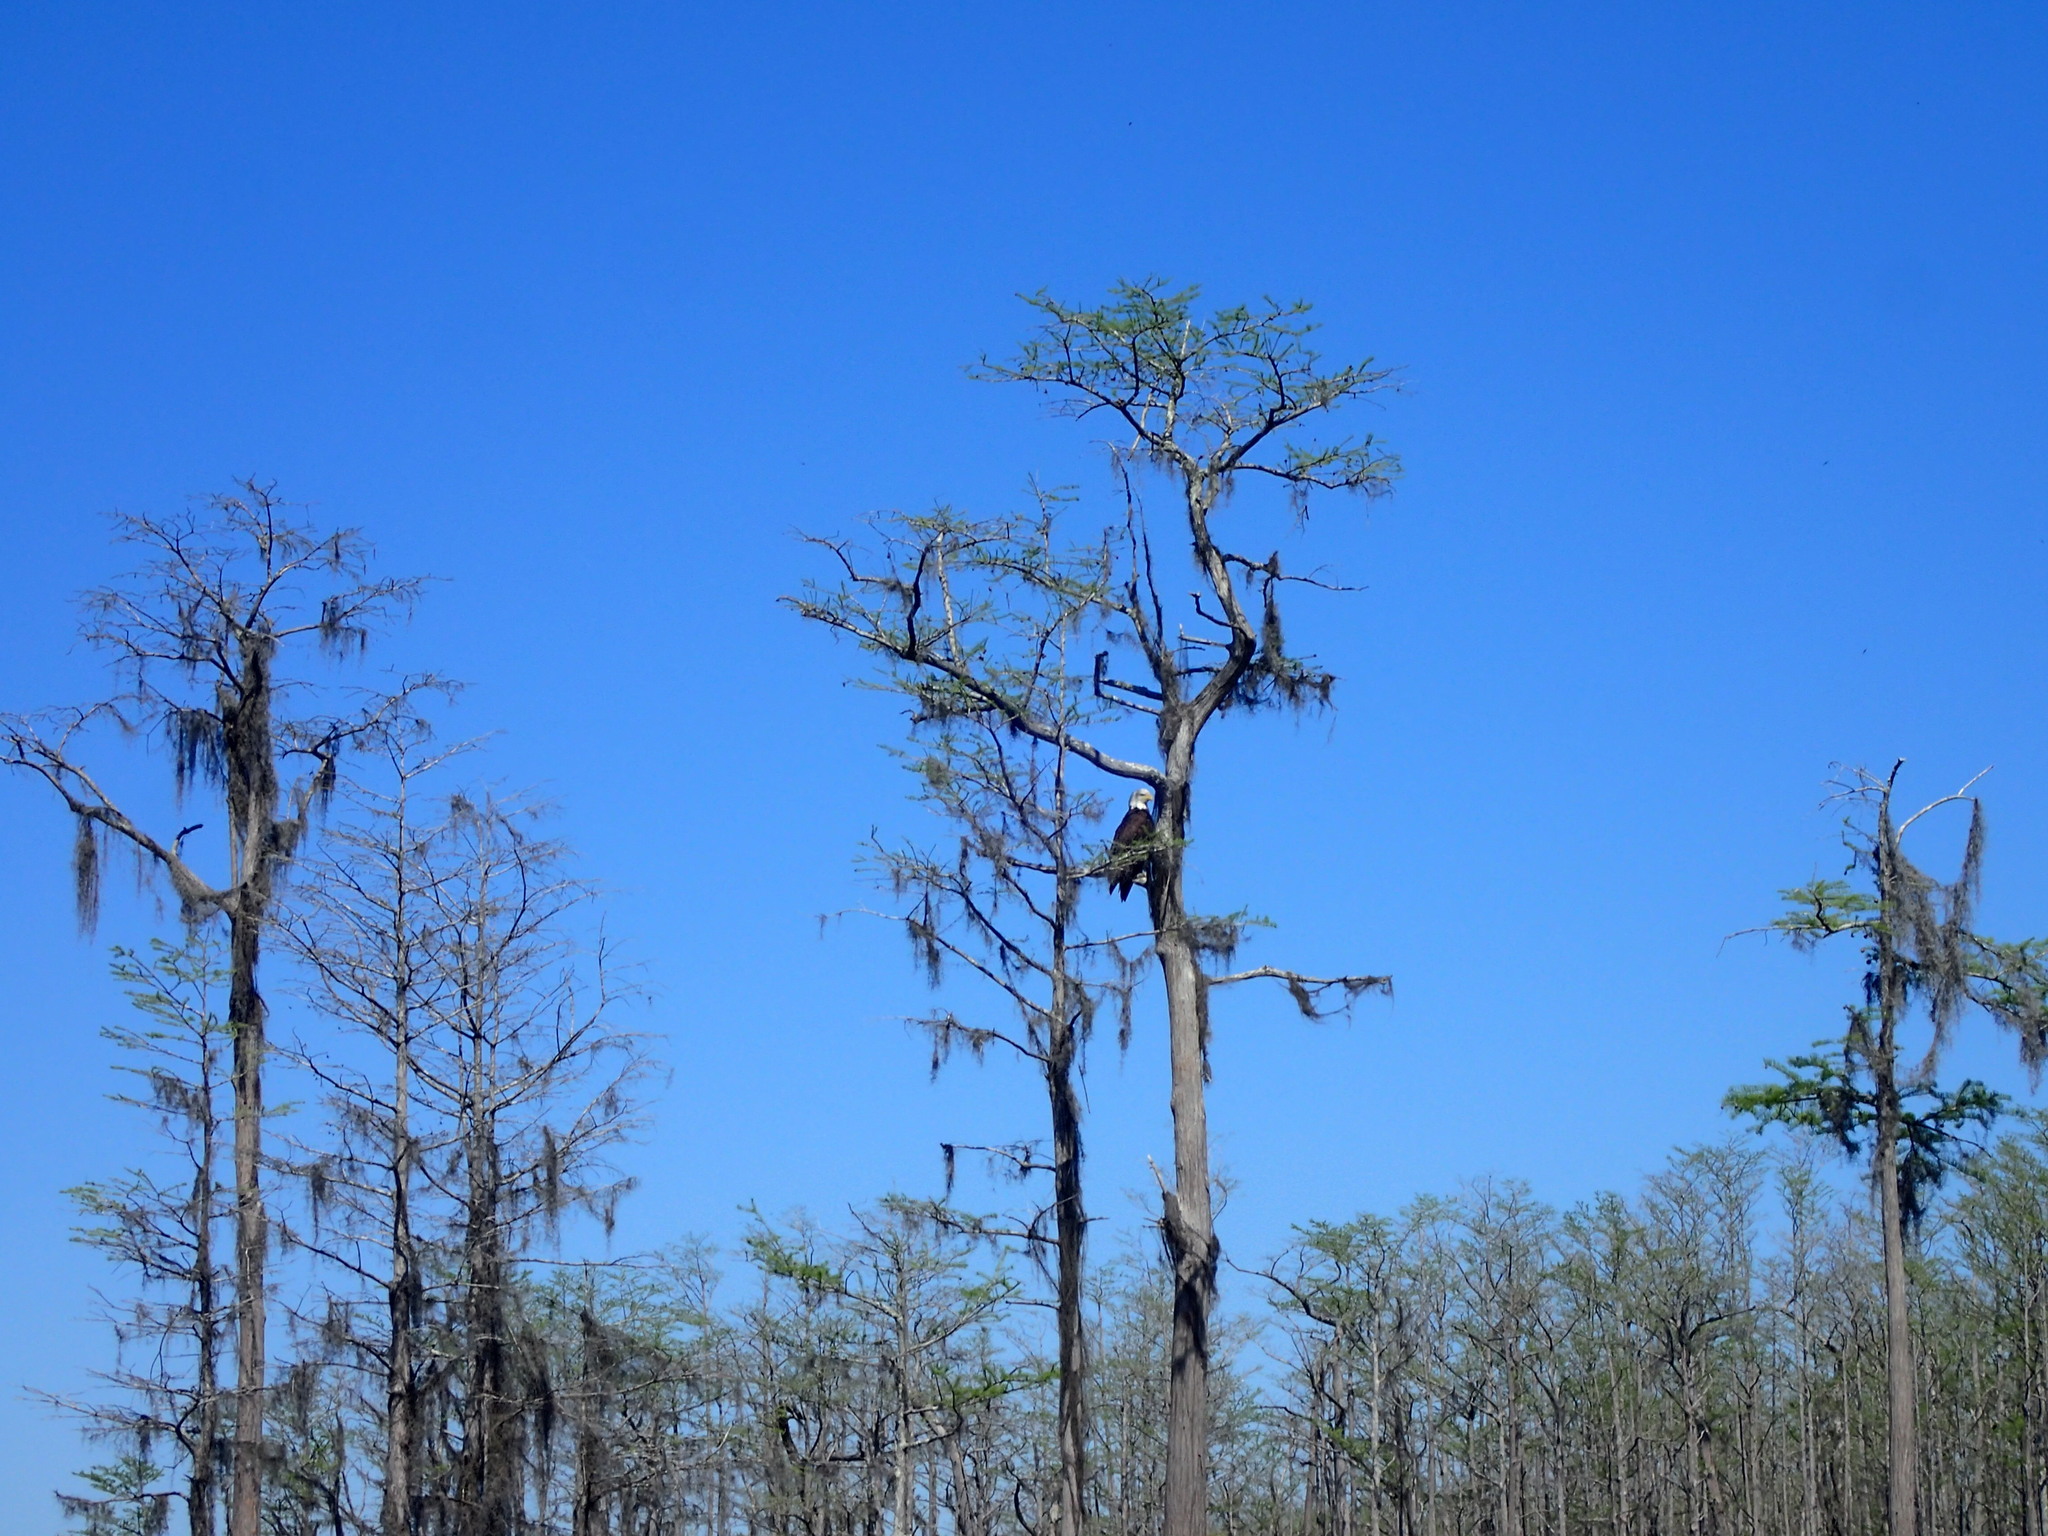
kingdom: Animalia
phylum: Chordata
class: Aves
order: Accipitriformes
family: Pandionidae
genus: Pandion
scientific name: Pandion haliaetus
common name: Osprey
